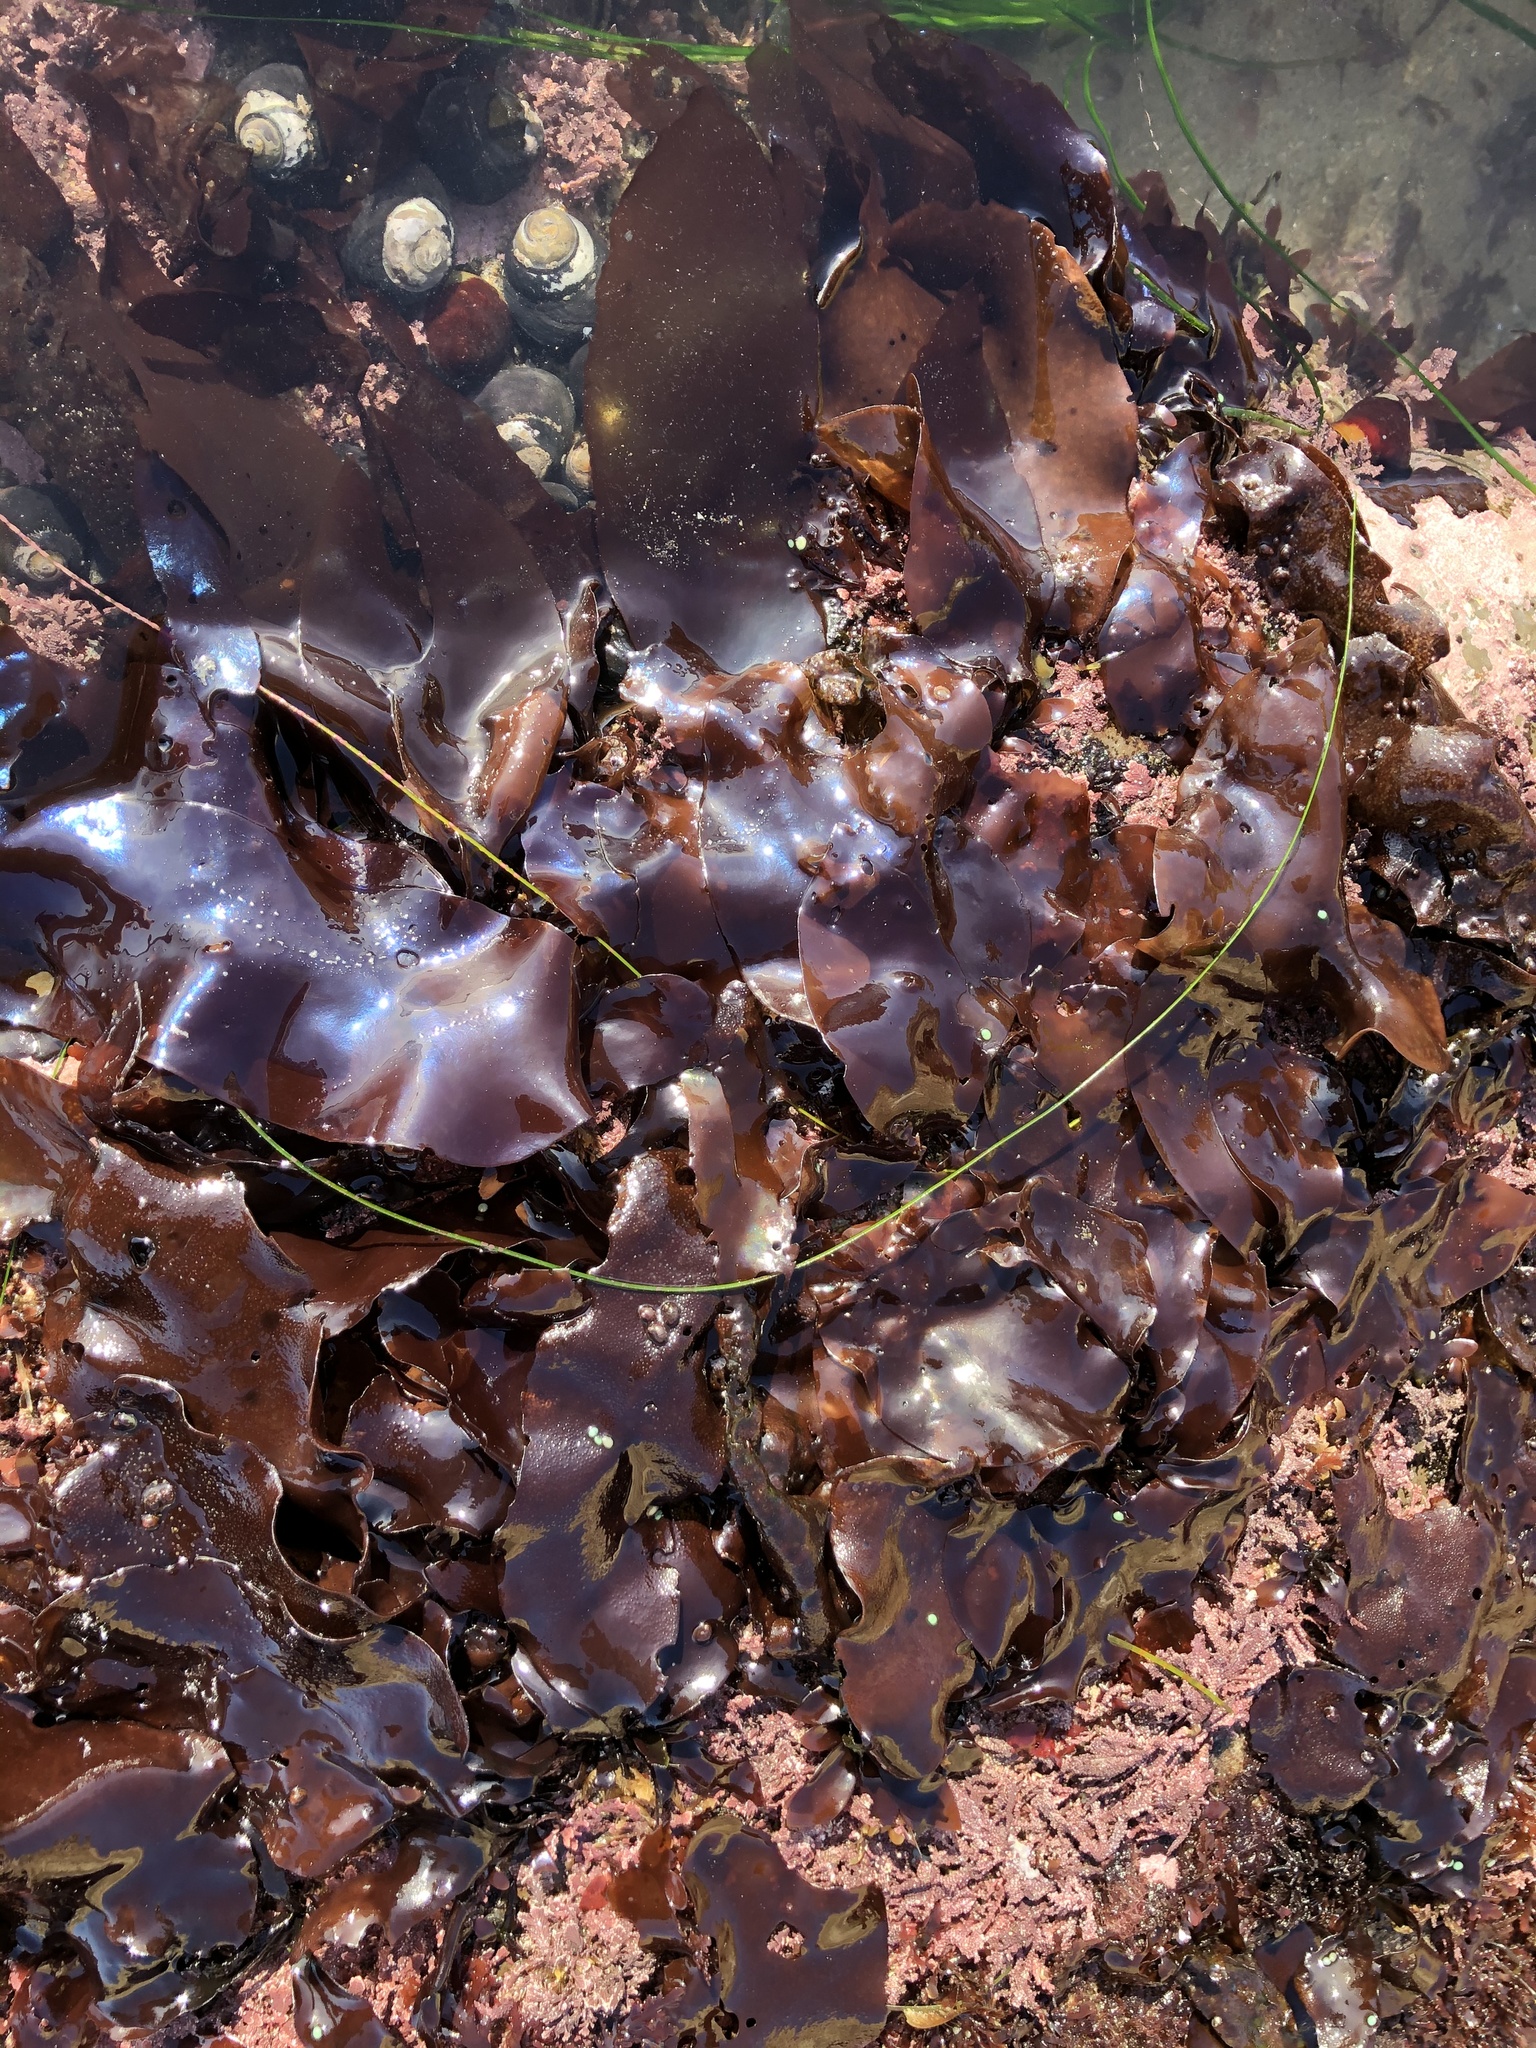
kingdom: Plantae
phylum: Rhodophyta
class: Florideophyceae
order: Gigartinales
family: Gigartinaceae
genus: Mazzaella
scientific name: Mazzaella splendens
